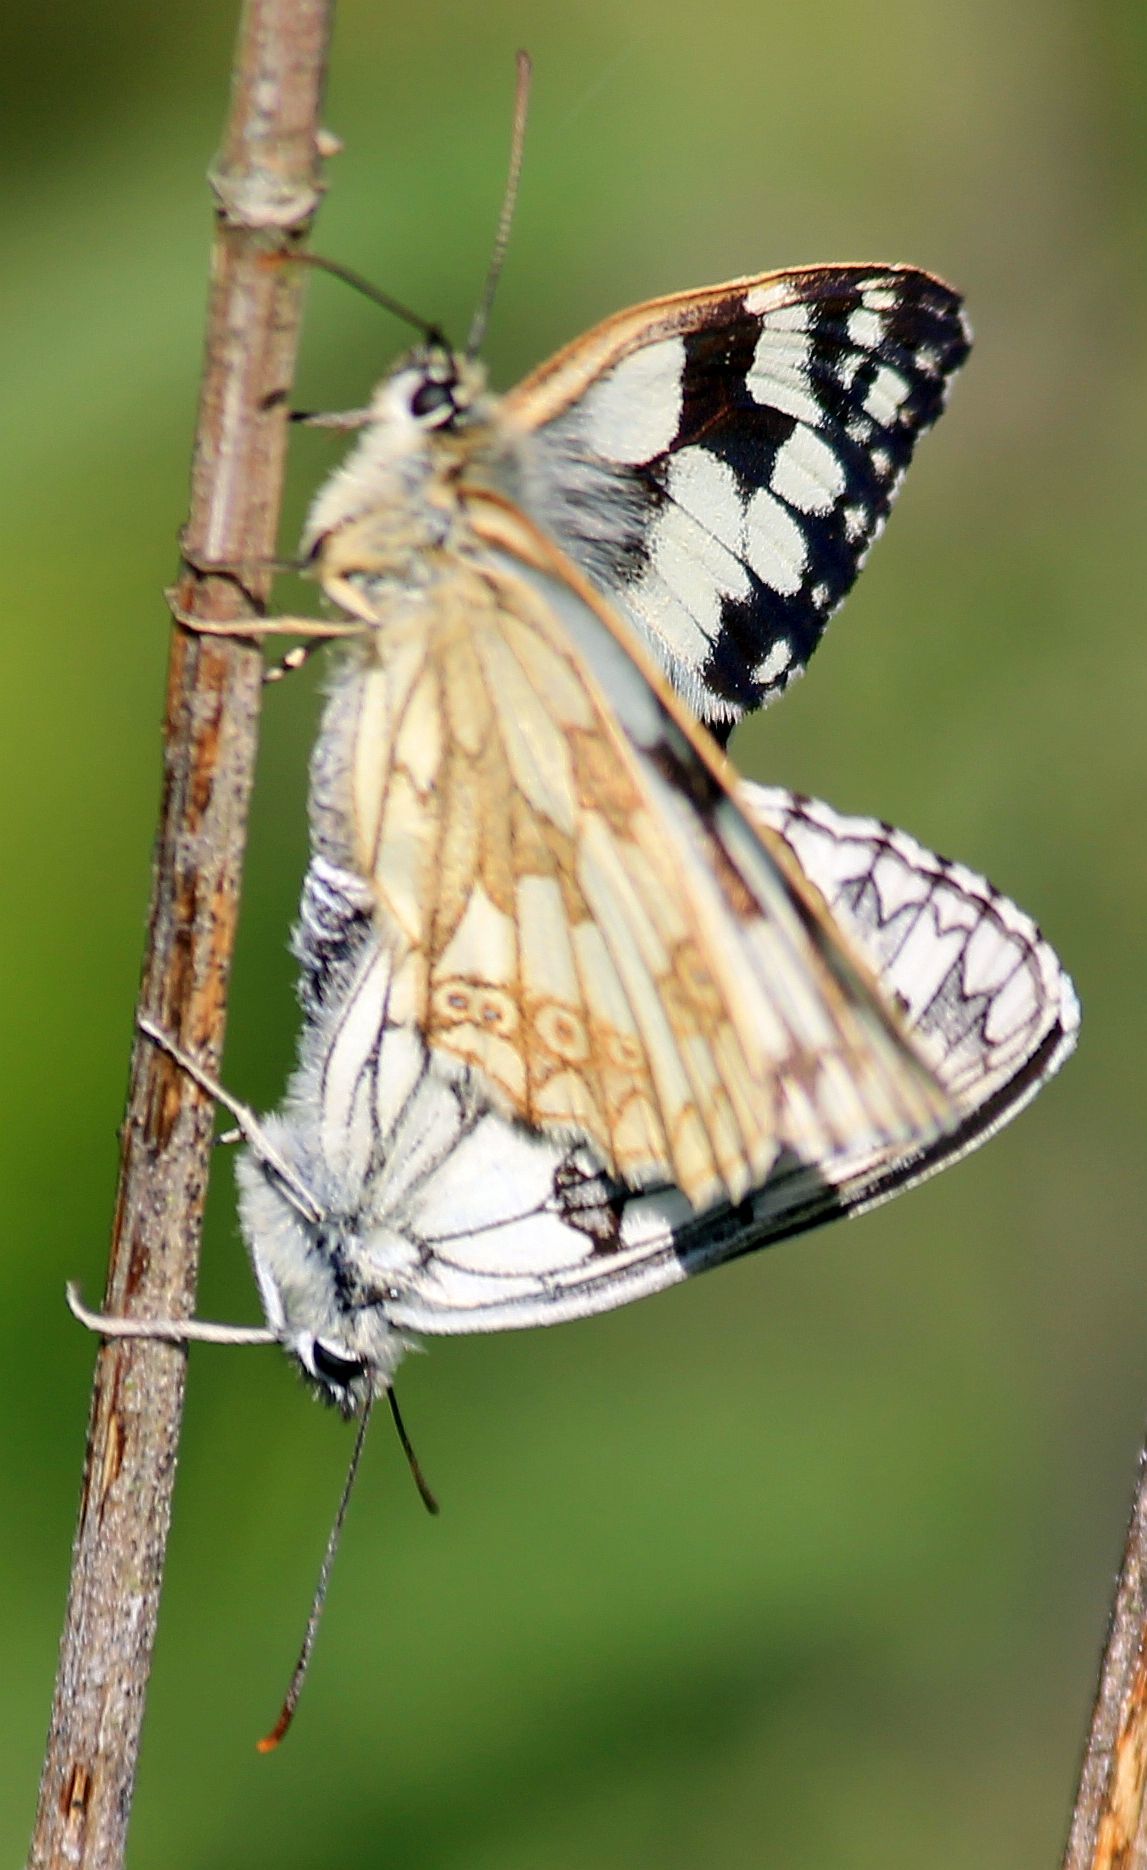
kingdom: Animalia
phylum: Arthropoda
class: Insecta
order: Lepidoptera
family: Nymphalidae
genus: Melanargia
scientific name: Melanargia galathea
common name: Marbled white
